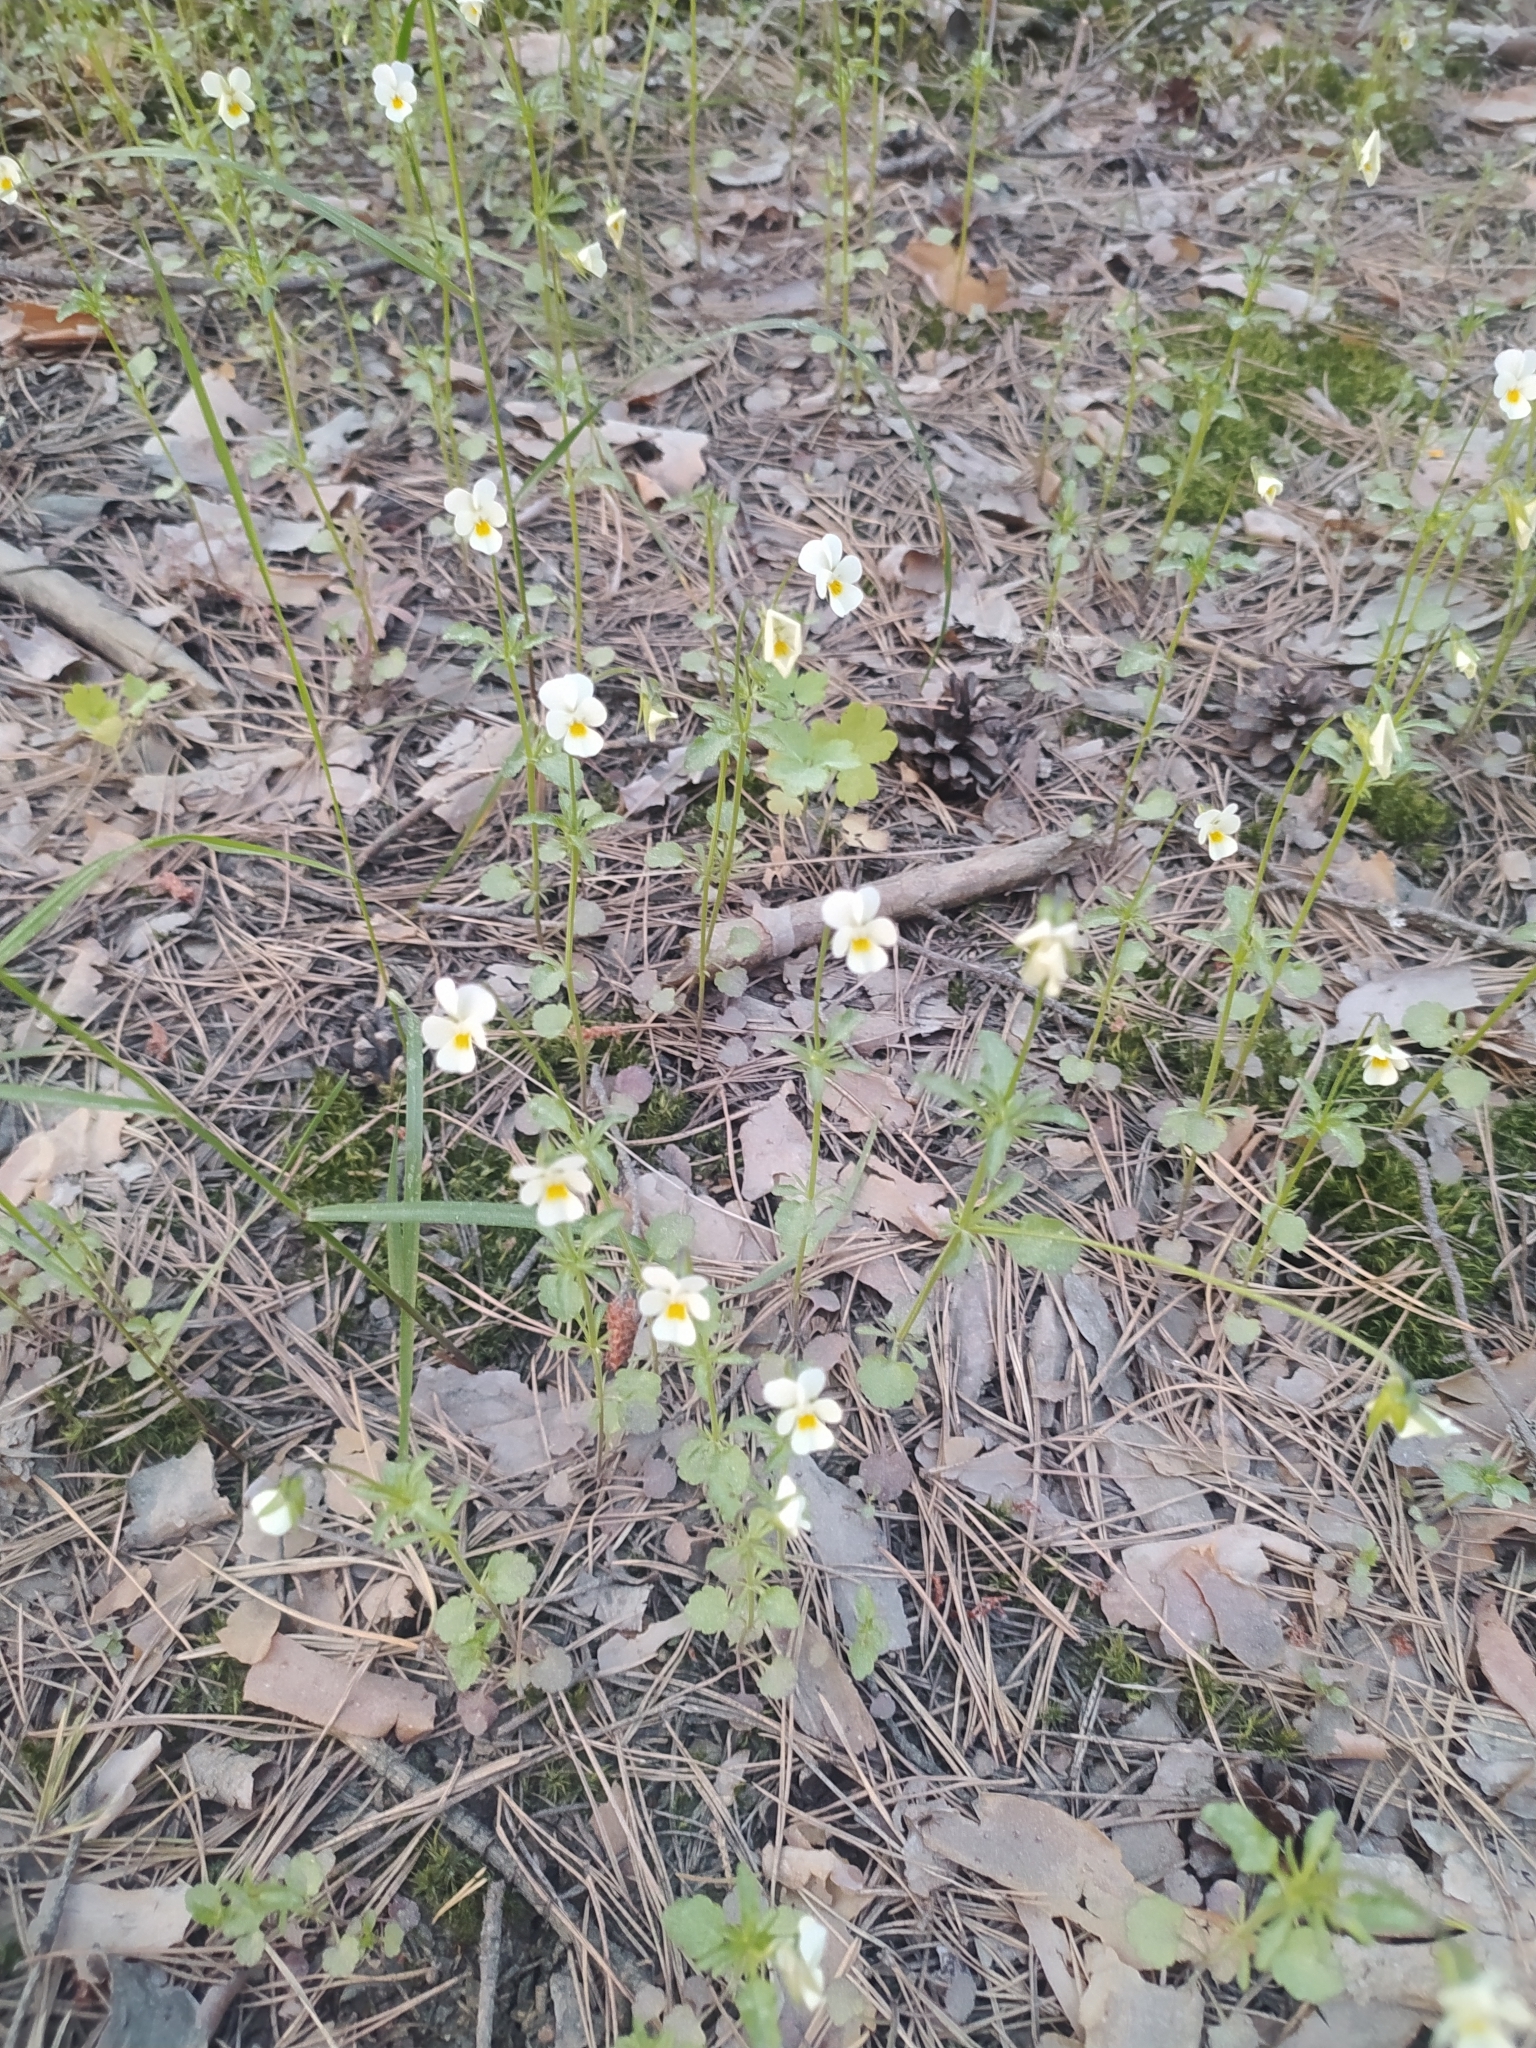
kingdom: Plantae
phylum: Tracheophyta
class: Magnoliopsida
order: Malpighiales
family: Violaceae
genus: Viola
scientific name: Viola arvensis
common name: Field pansy
